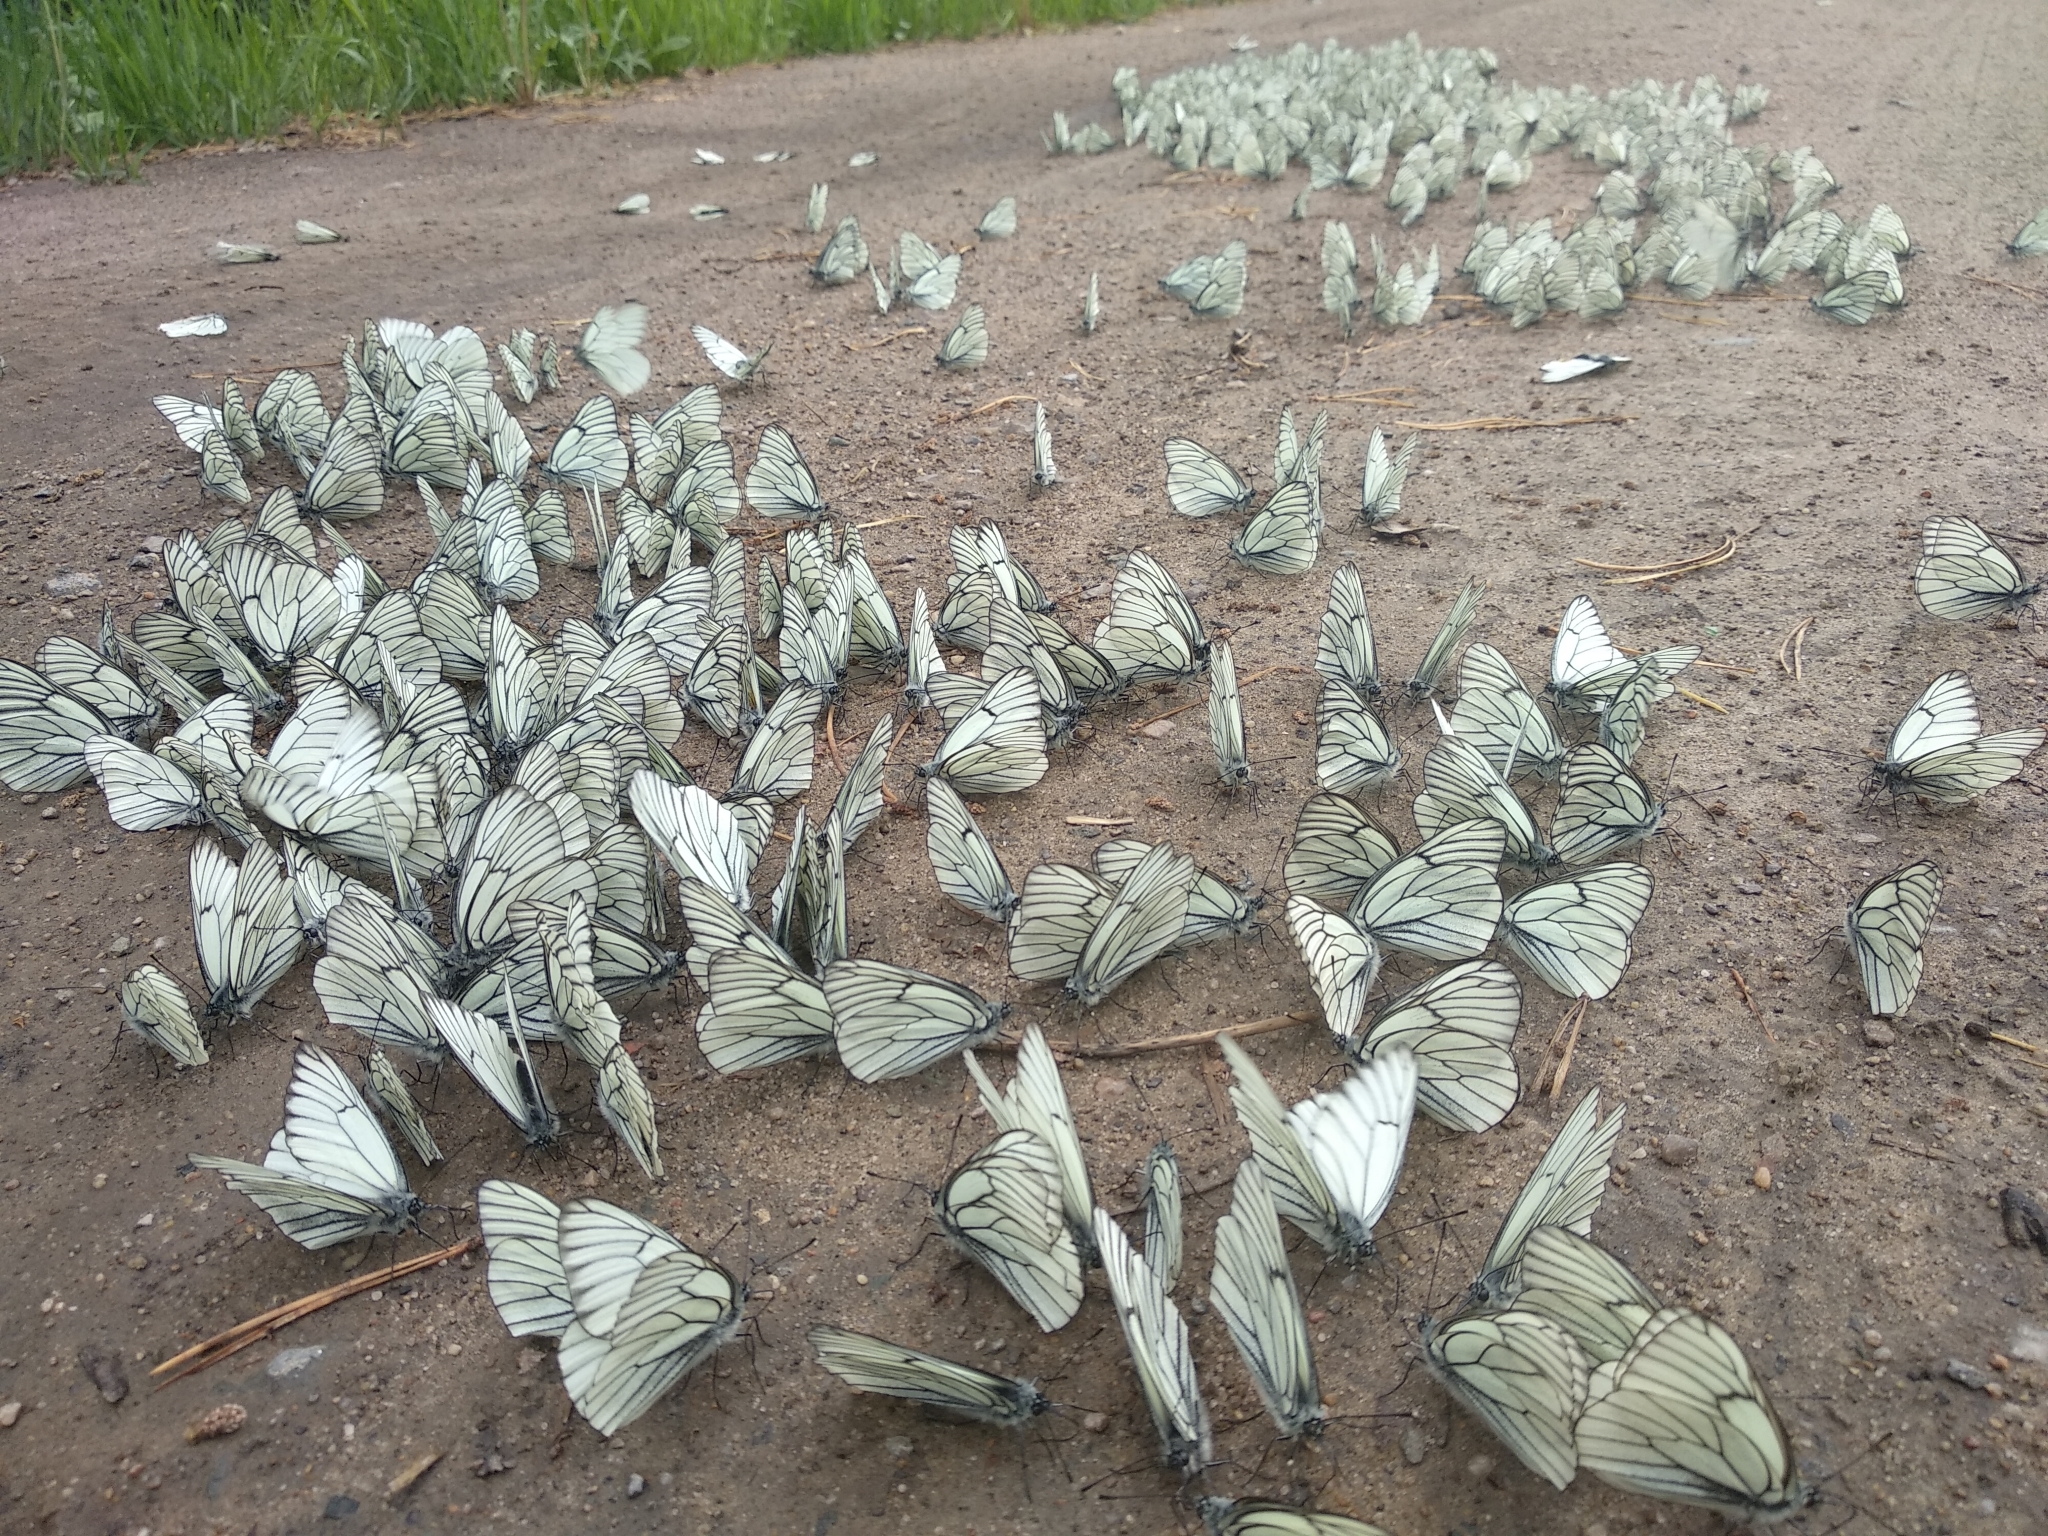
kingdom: Animalia
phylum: Arthropoda
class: Insecta
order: Lepidoptera
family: Pieridae
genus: Aporia
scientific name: Aporia crataegi
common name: Black-veined white
